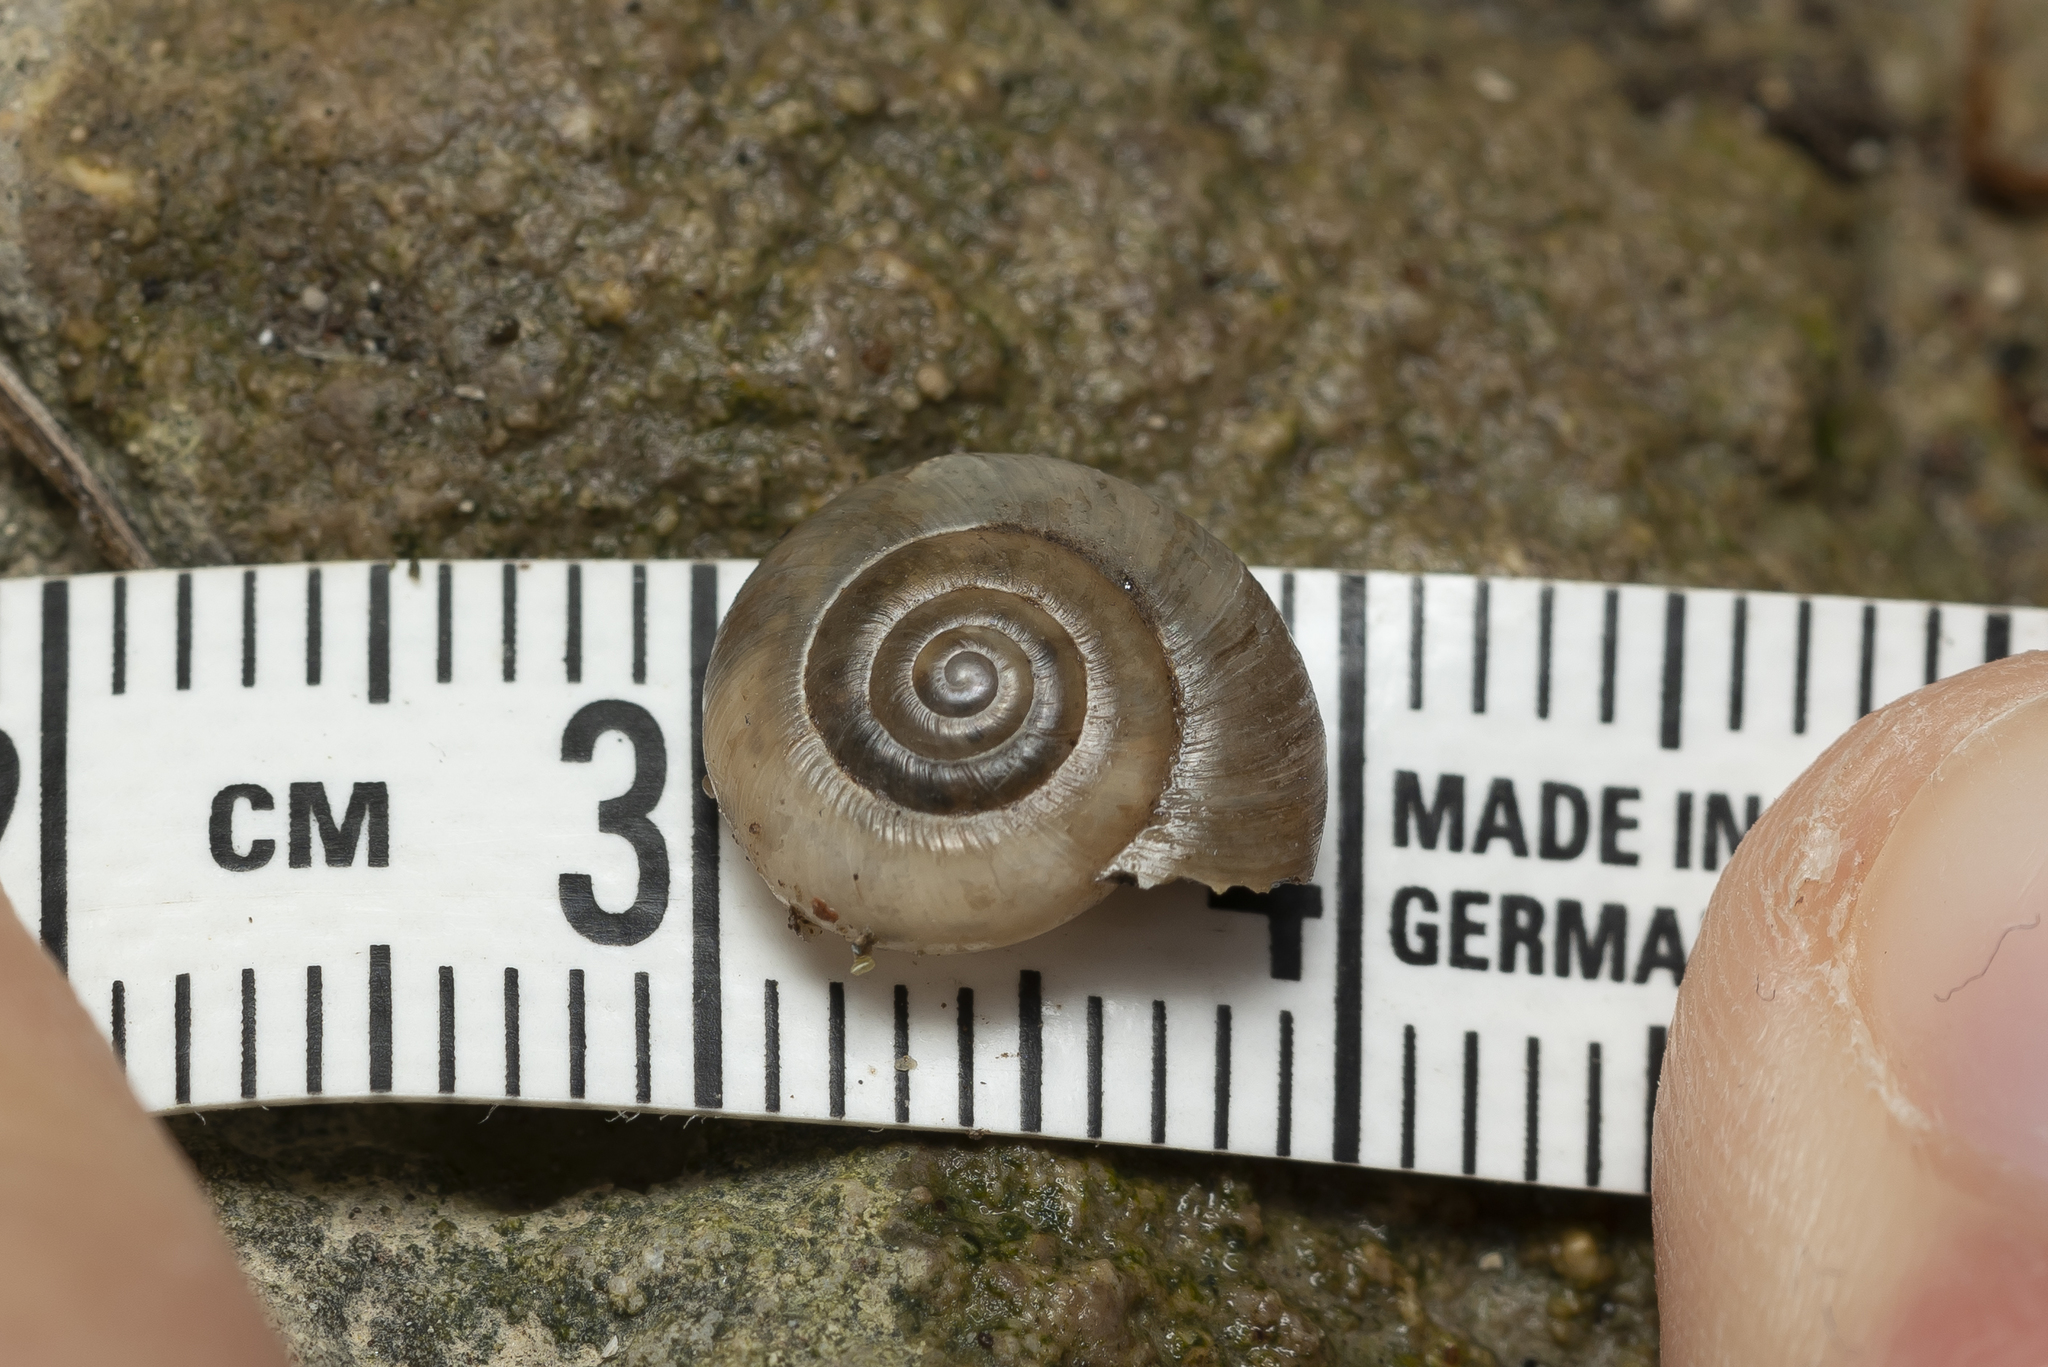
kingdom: Animalia
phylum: Mollusca
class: Gastropoda
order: Stylommatophora
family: Oxychilidae
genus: Oxychilus
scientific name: Oxychilus cyprius
